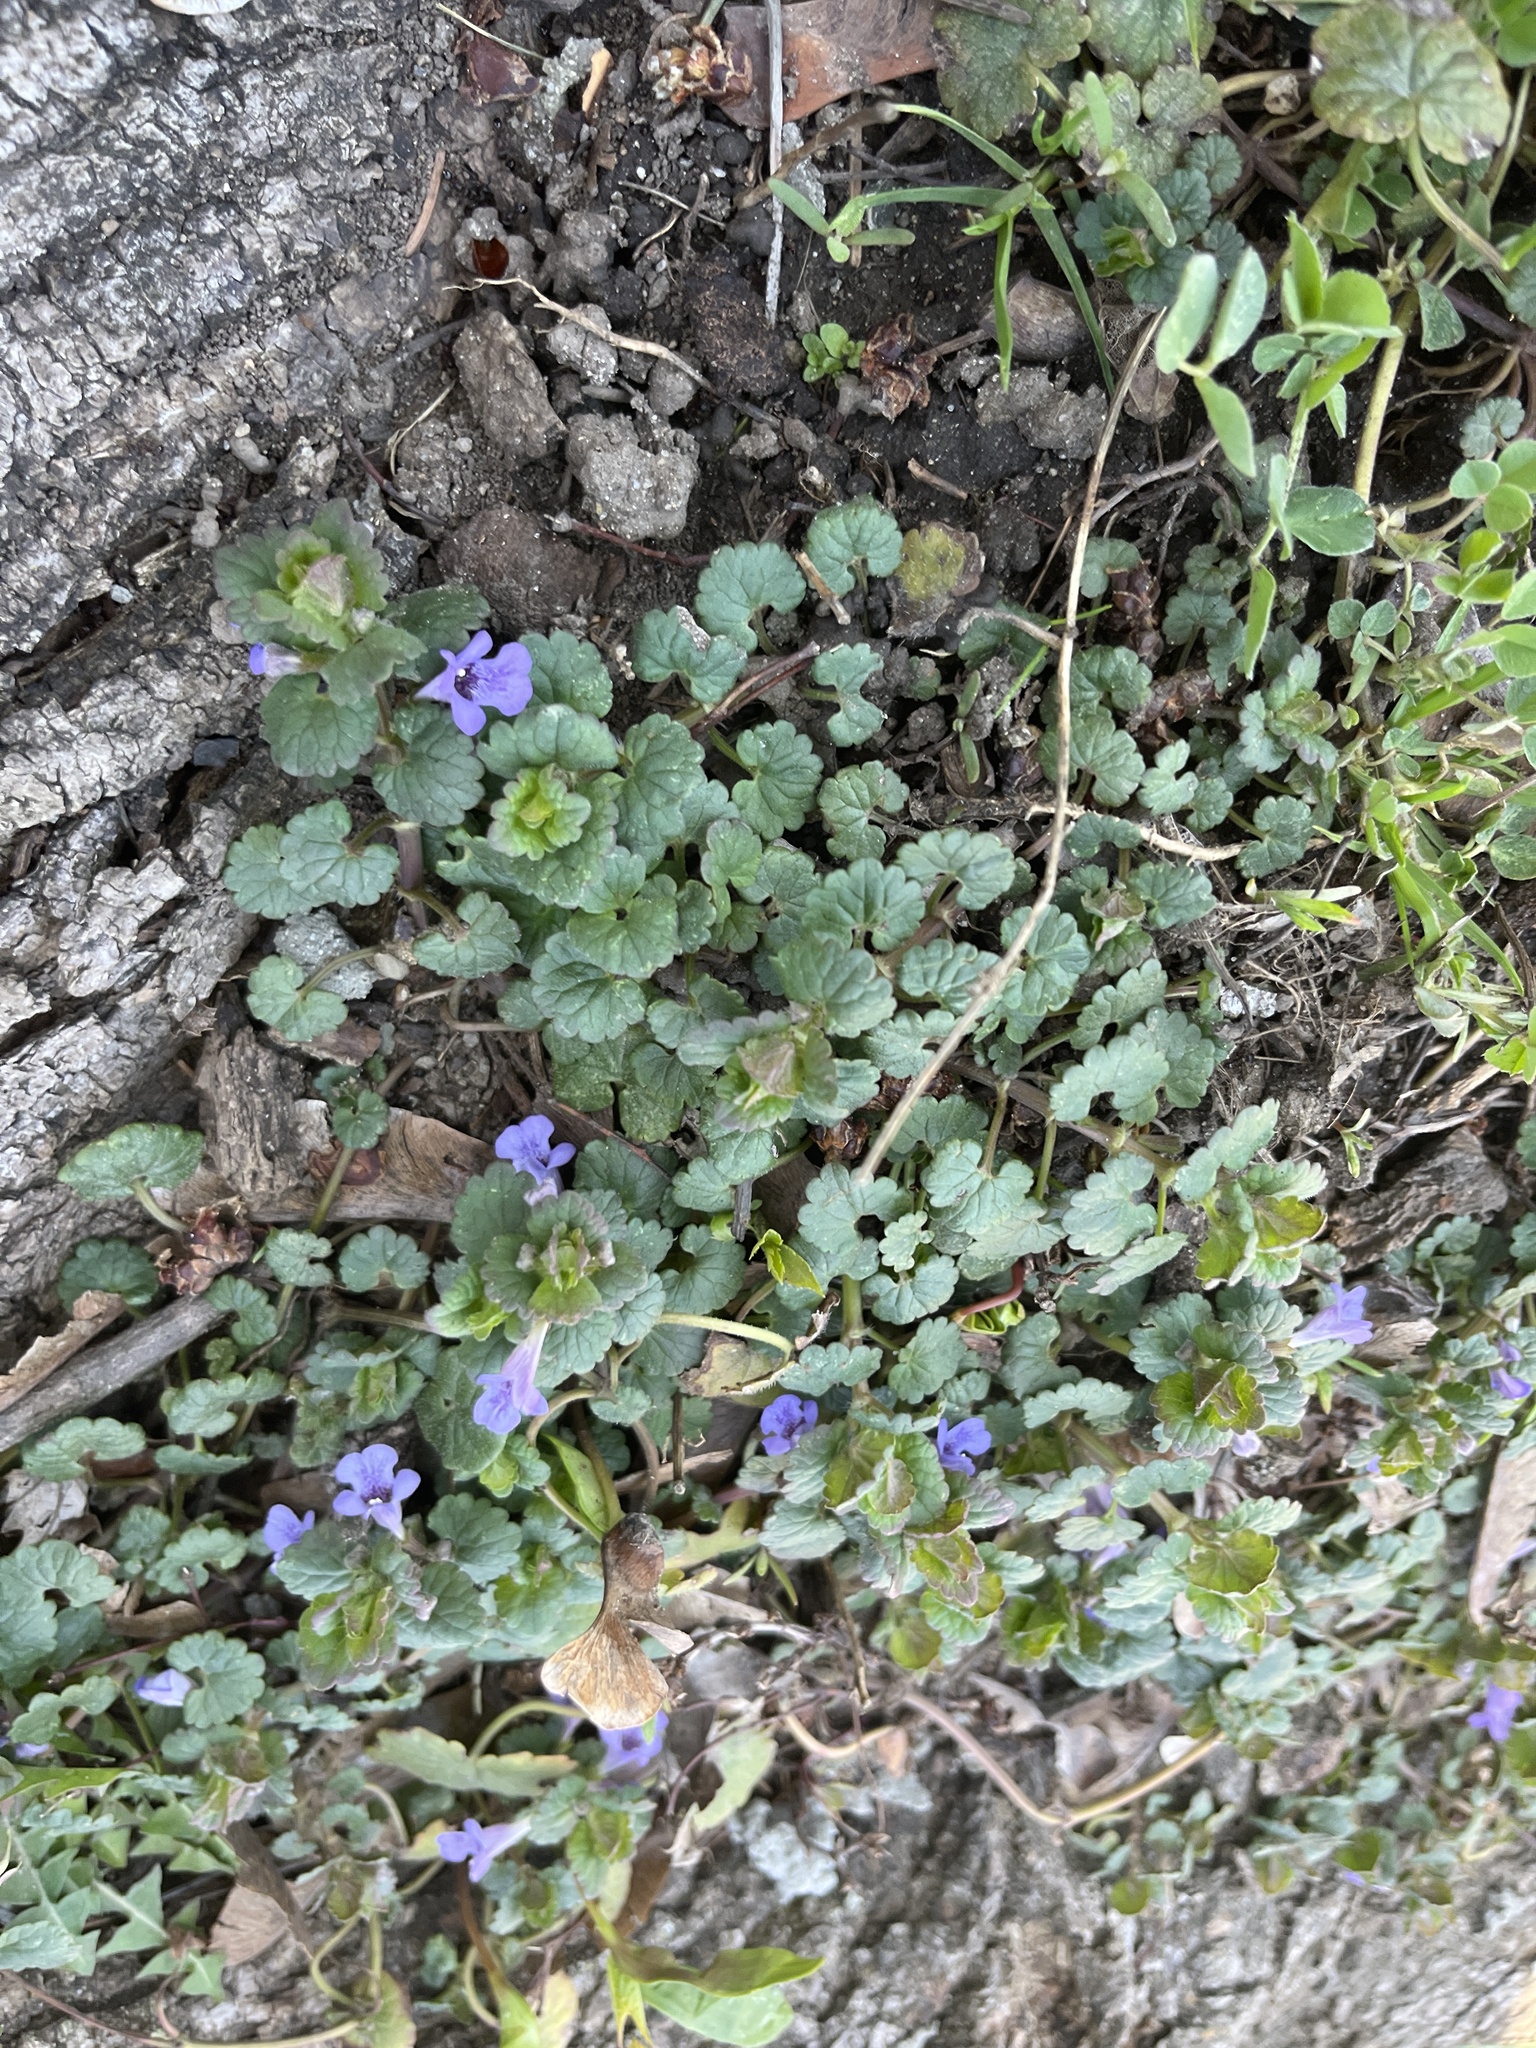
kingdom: Plantae
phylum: Tracheophyta
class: Magnoliopsida
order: Lamiales
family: Lamiaceae
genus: Glechoma
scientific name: Glechoma hederacea
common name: Ground ivy
